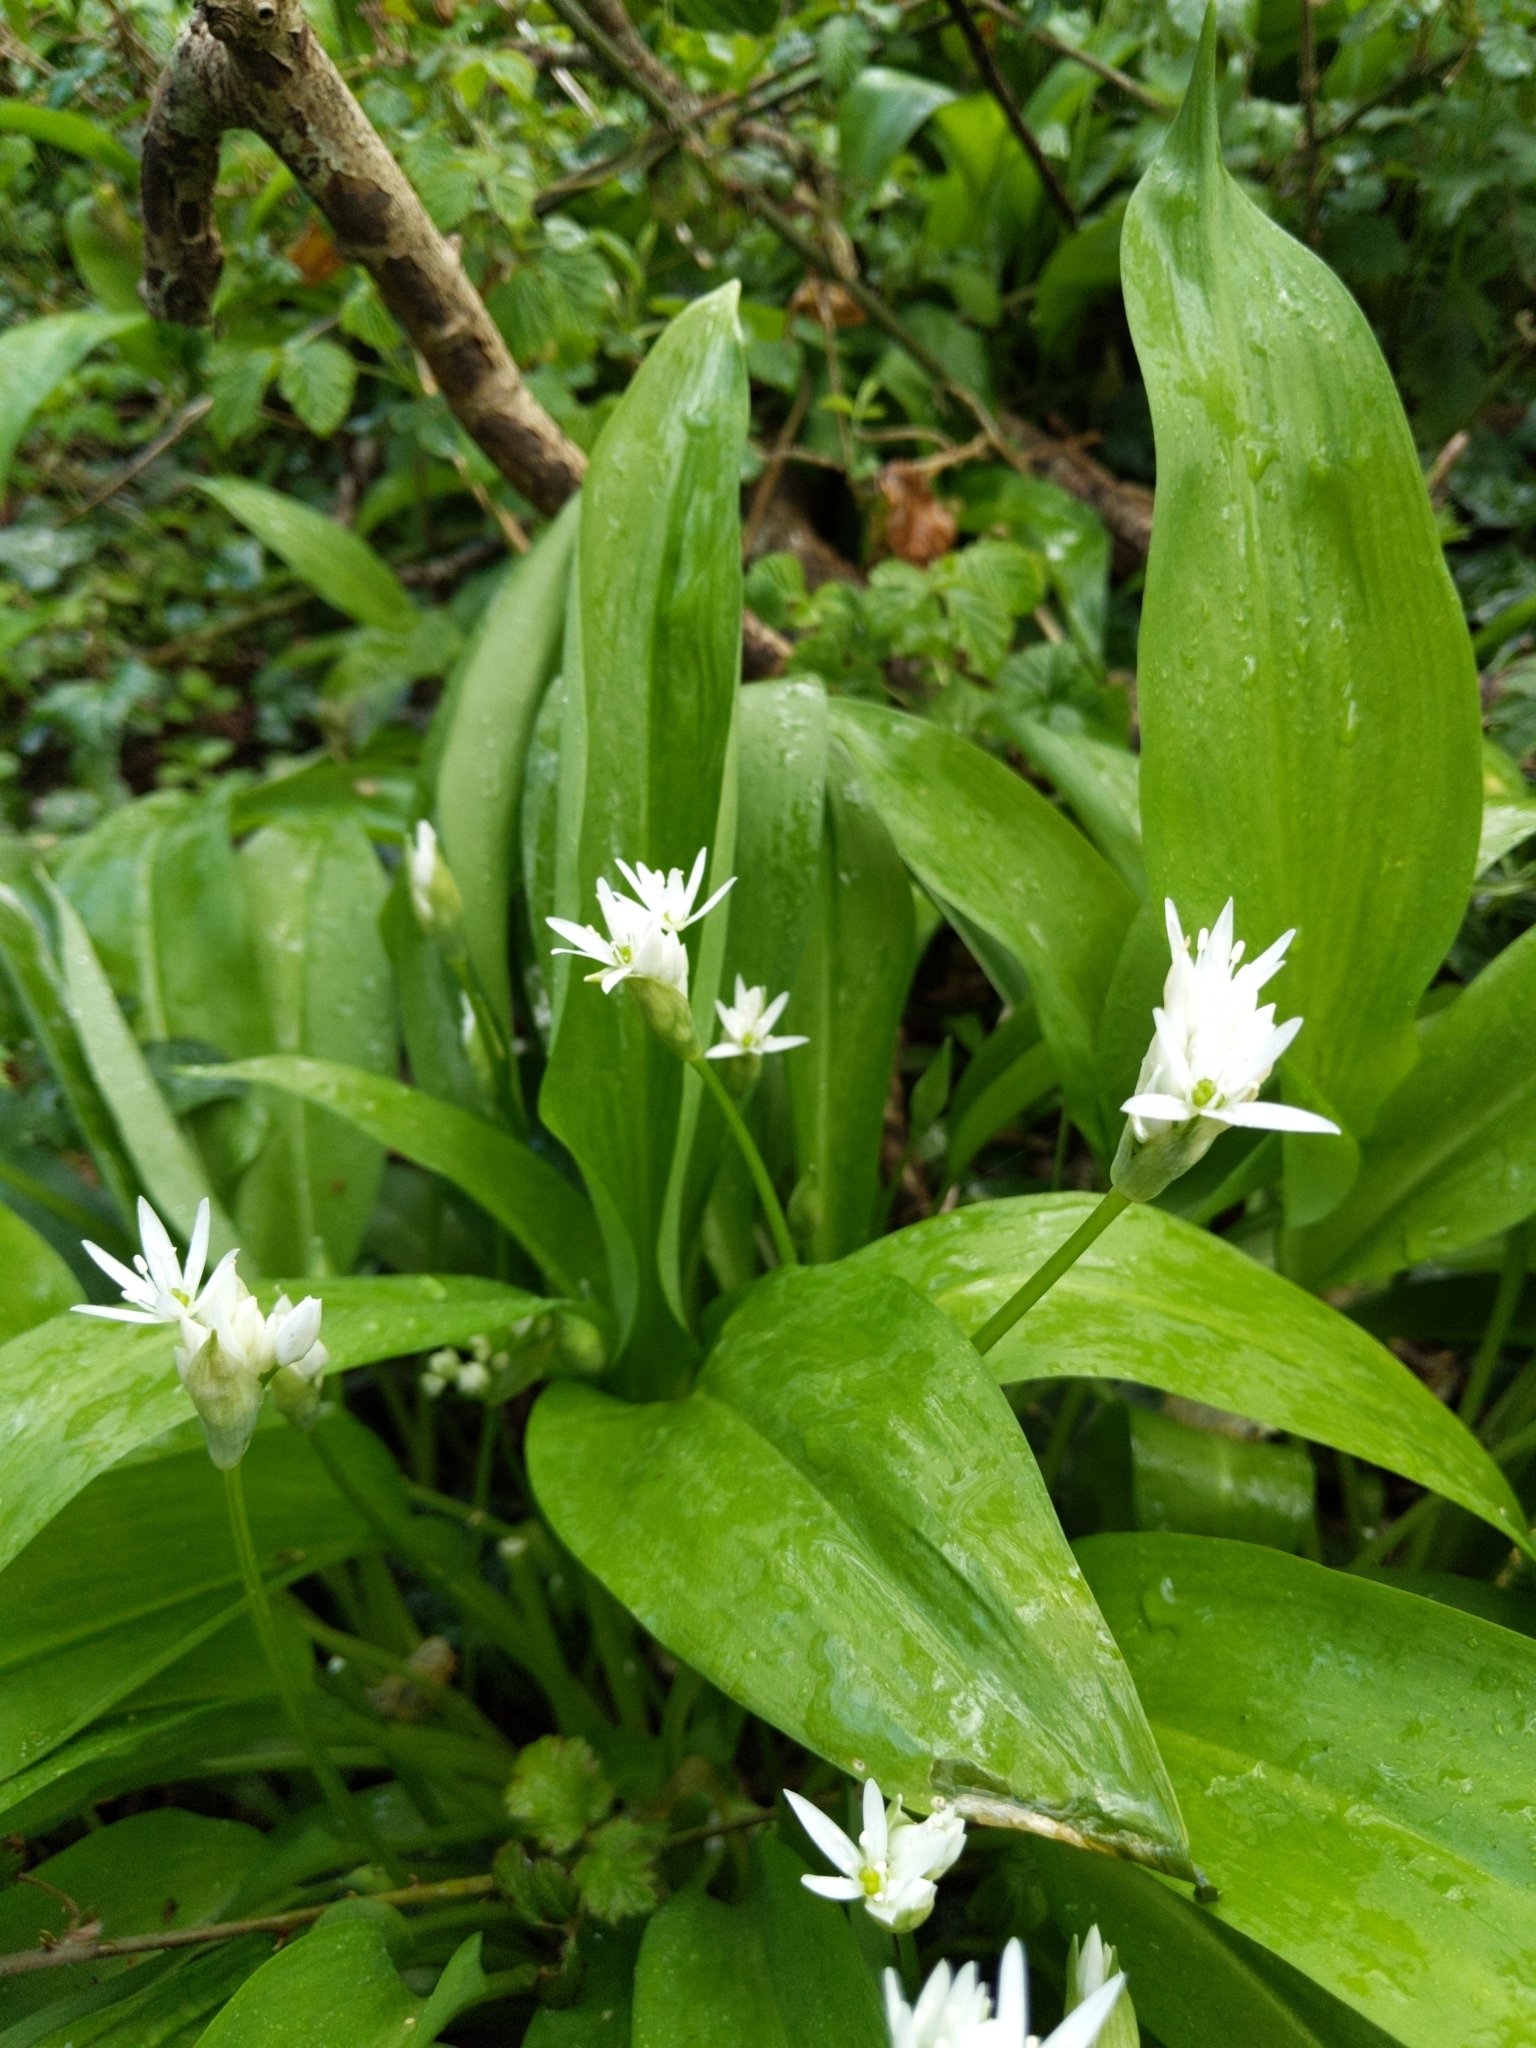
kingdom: Plantae
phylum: Tracheophyta
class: Liliopsida
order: Asparagales
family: Amaryllidaceae
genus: Allium
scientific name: Allium ursinum
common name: Ramsons
